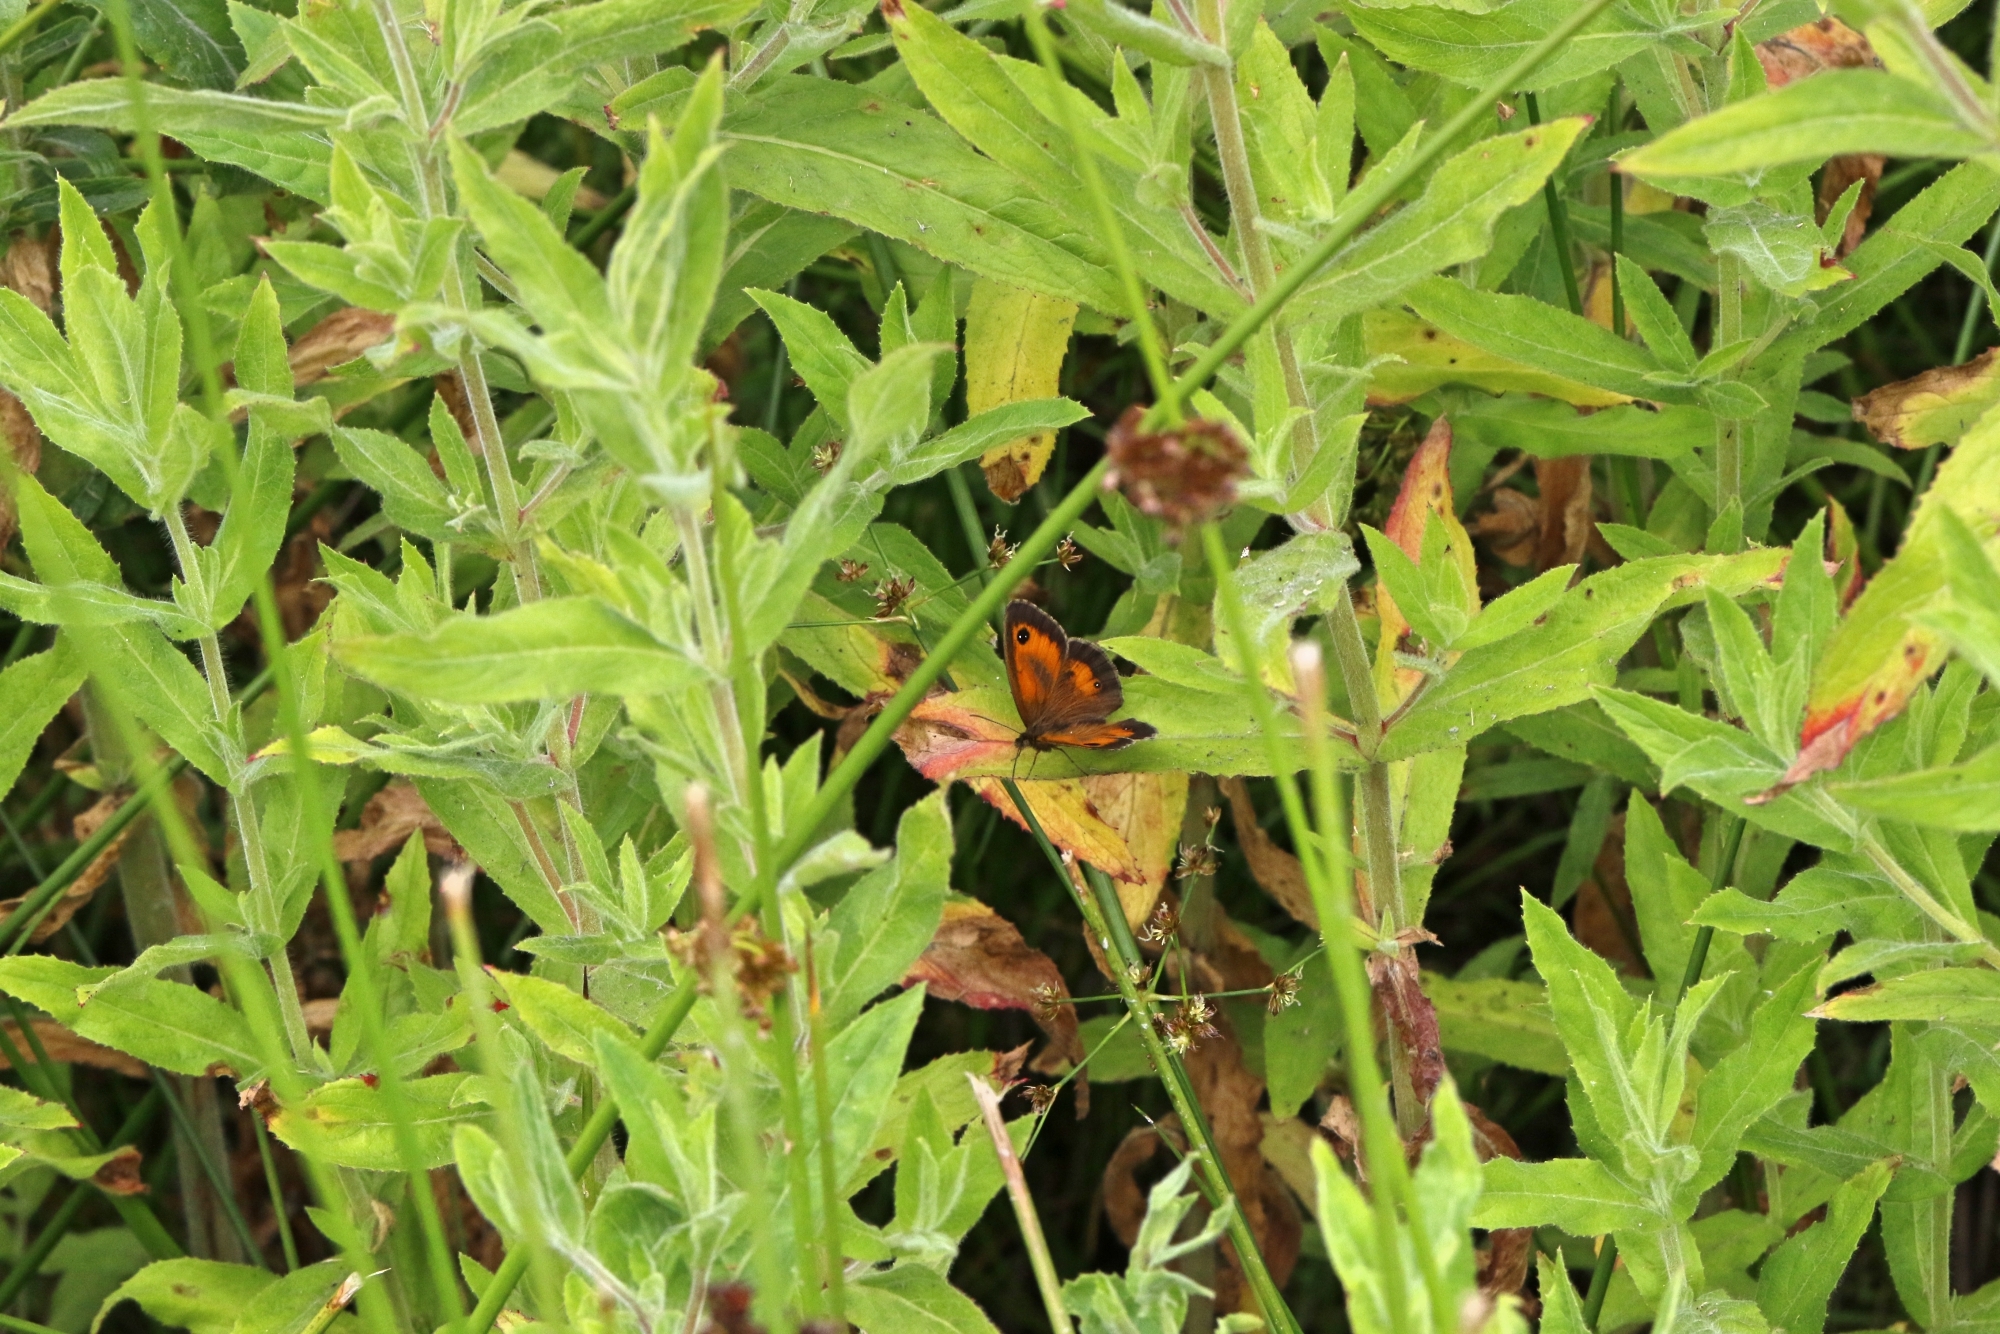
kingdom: Animalia
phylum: Arthropoda
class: Insecta
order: Lepidoptera
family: Nymphalidae
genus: Pyronia
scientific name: Pyronia tithonus
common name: Gatekeeper
